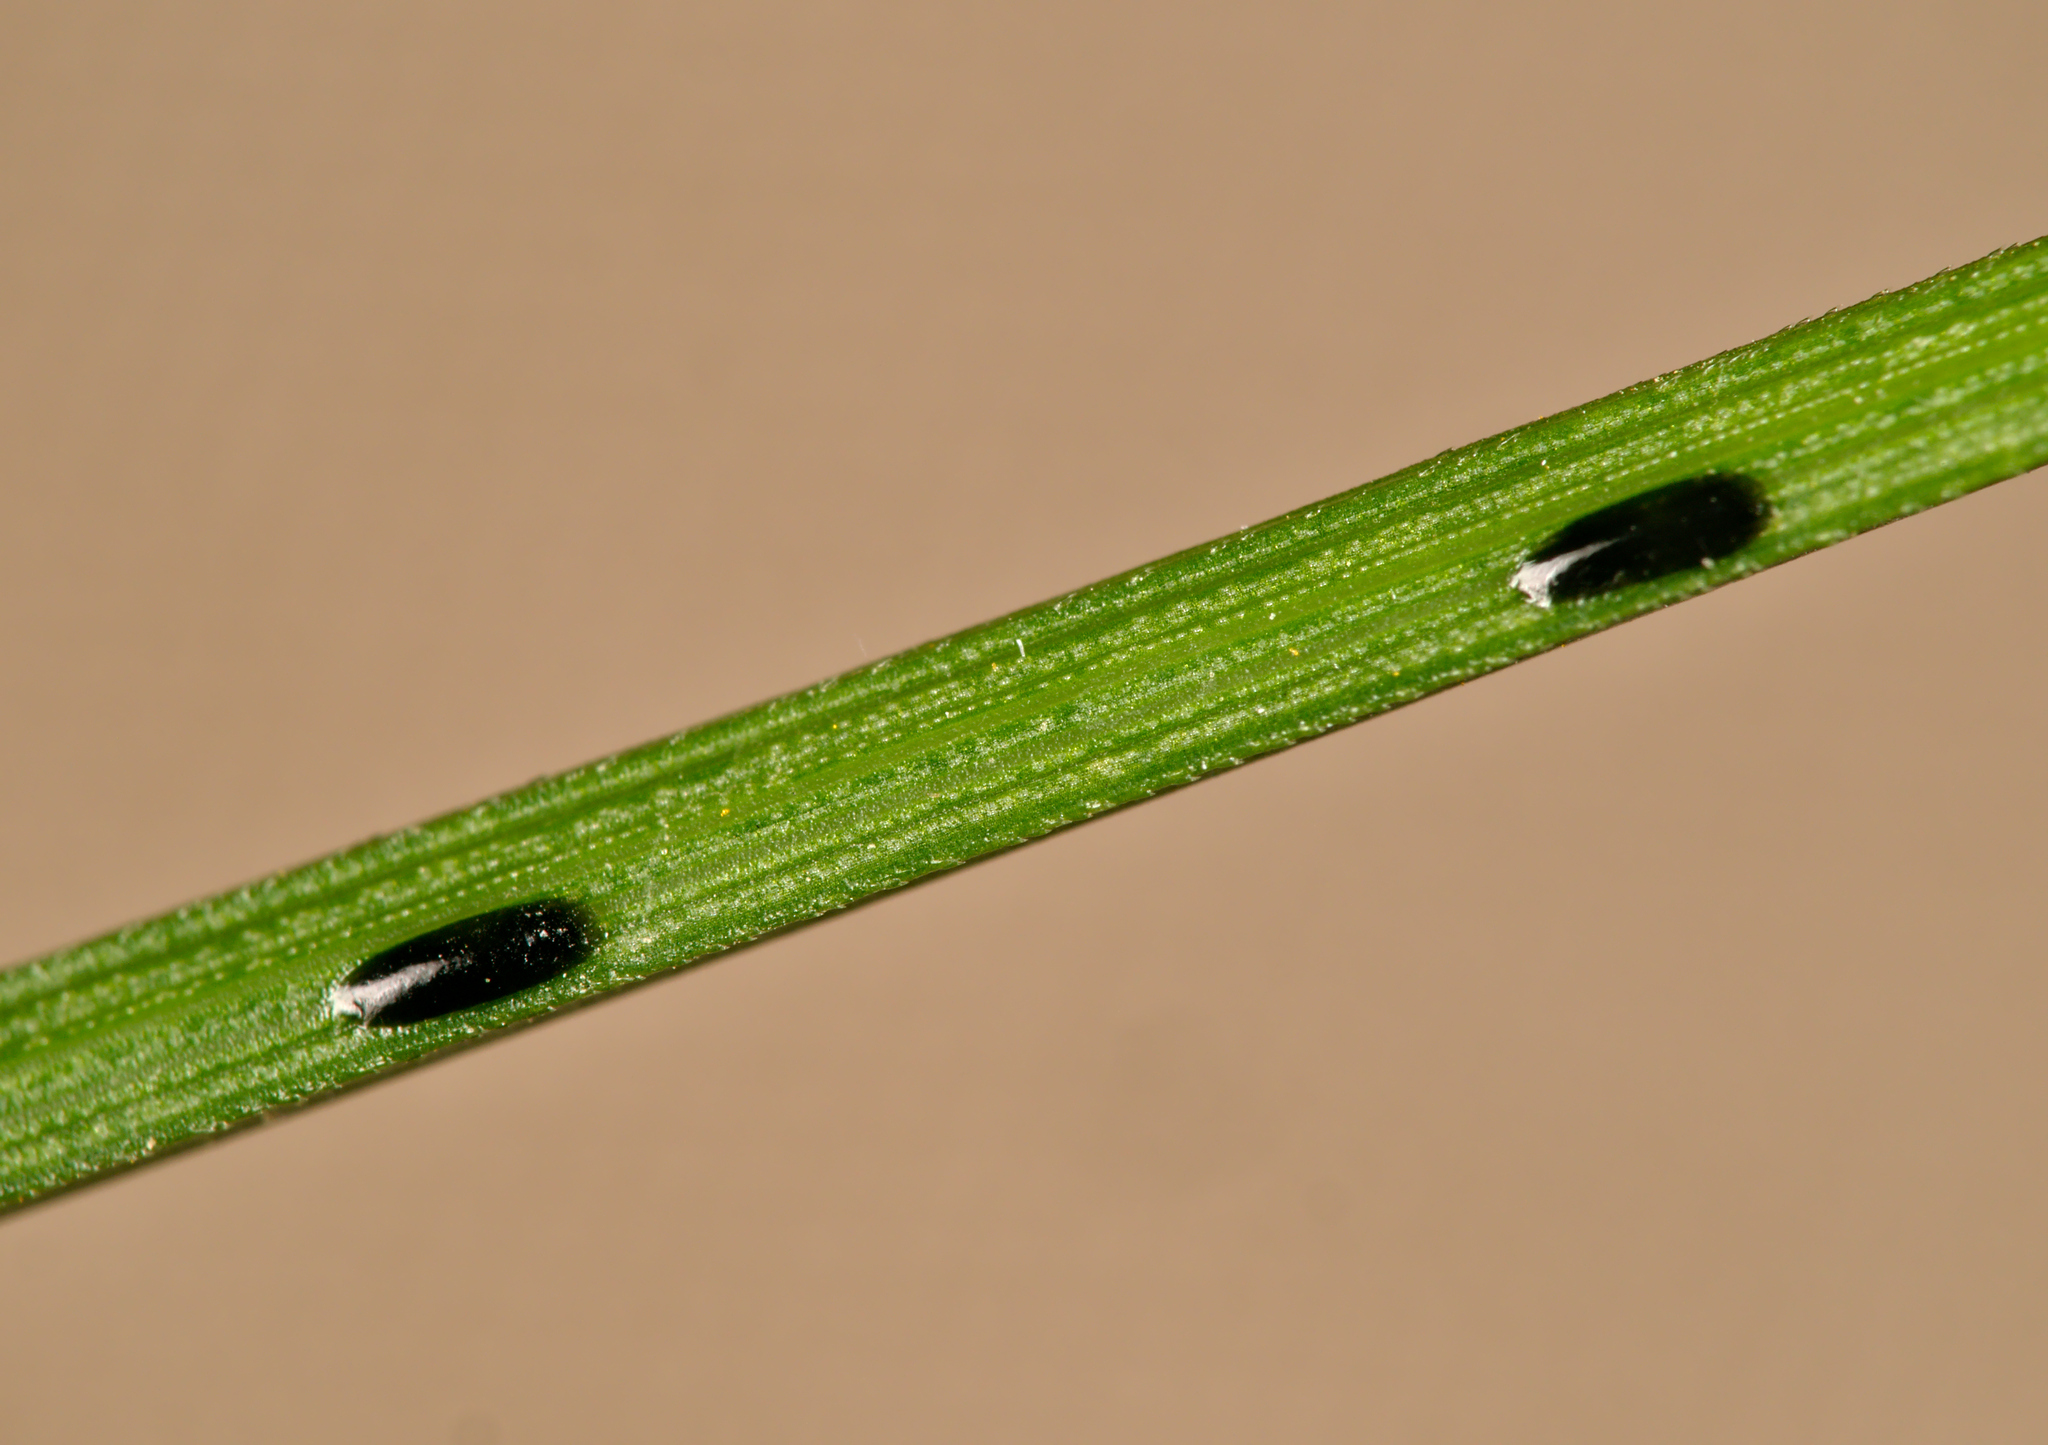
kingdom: Animalia
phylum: Arthropoda
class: Insecta
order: Coleoptera
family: Buprestidae
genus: Aphanisticus
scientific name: Aphanisticus elongatus
